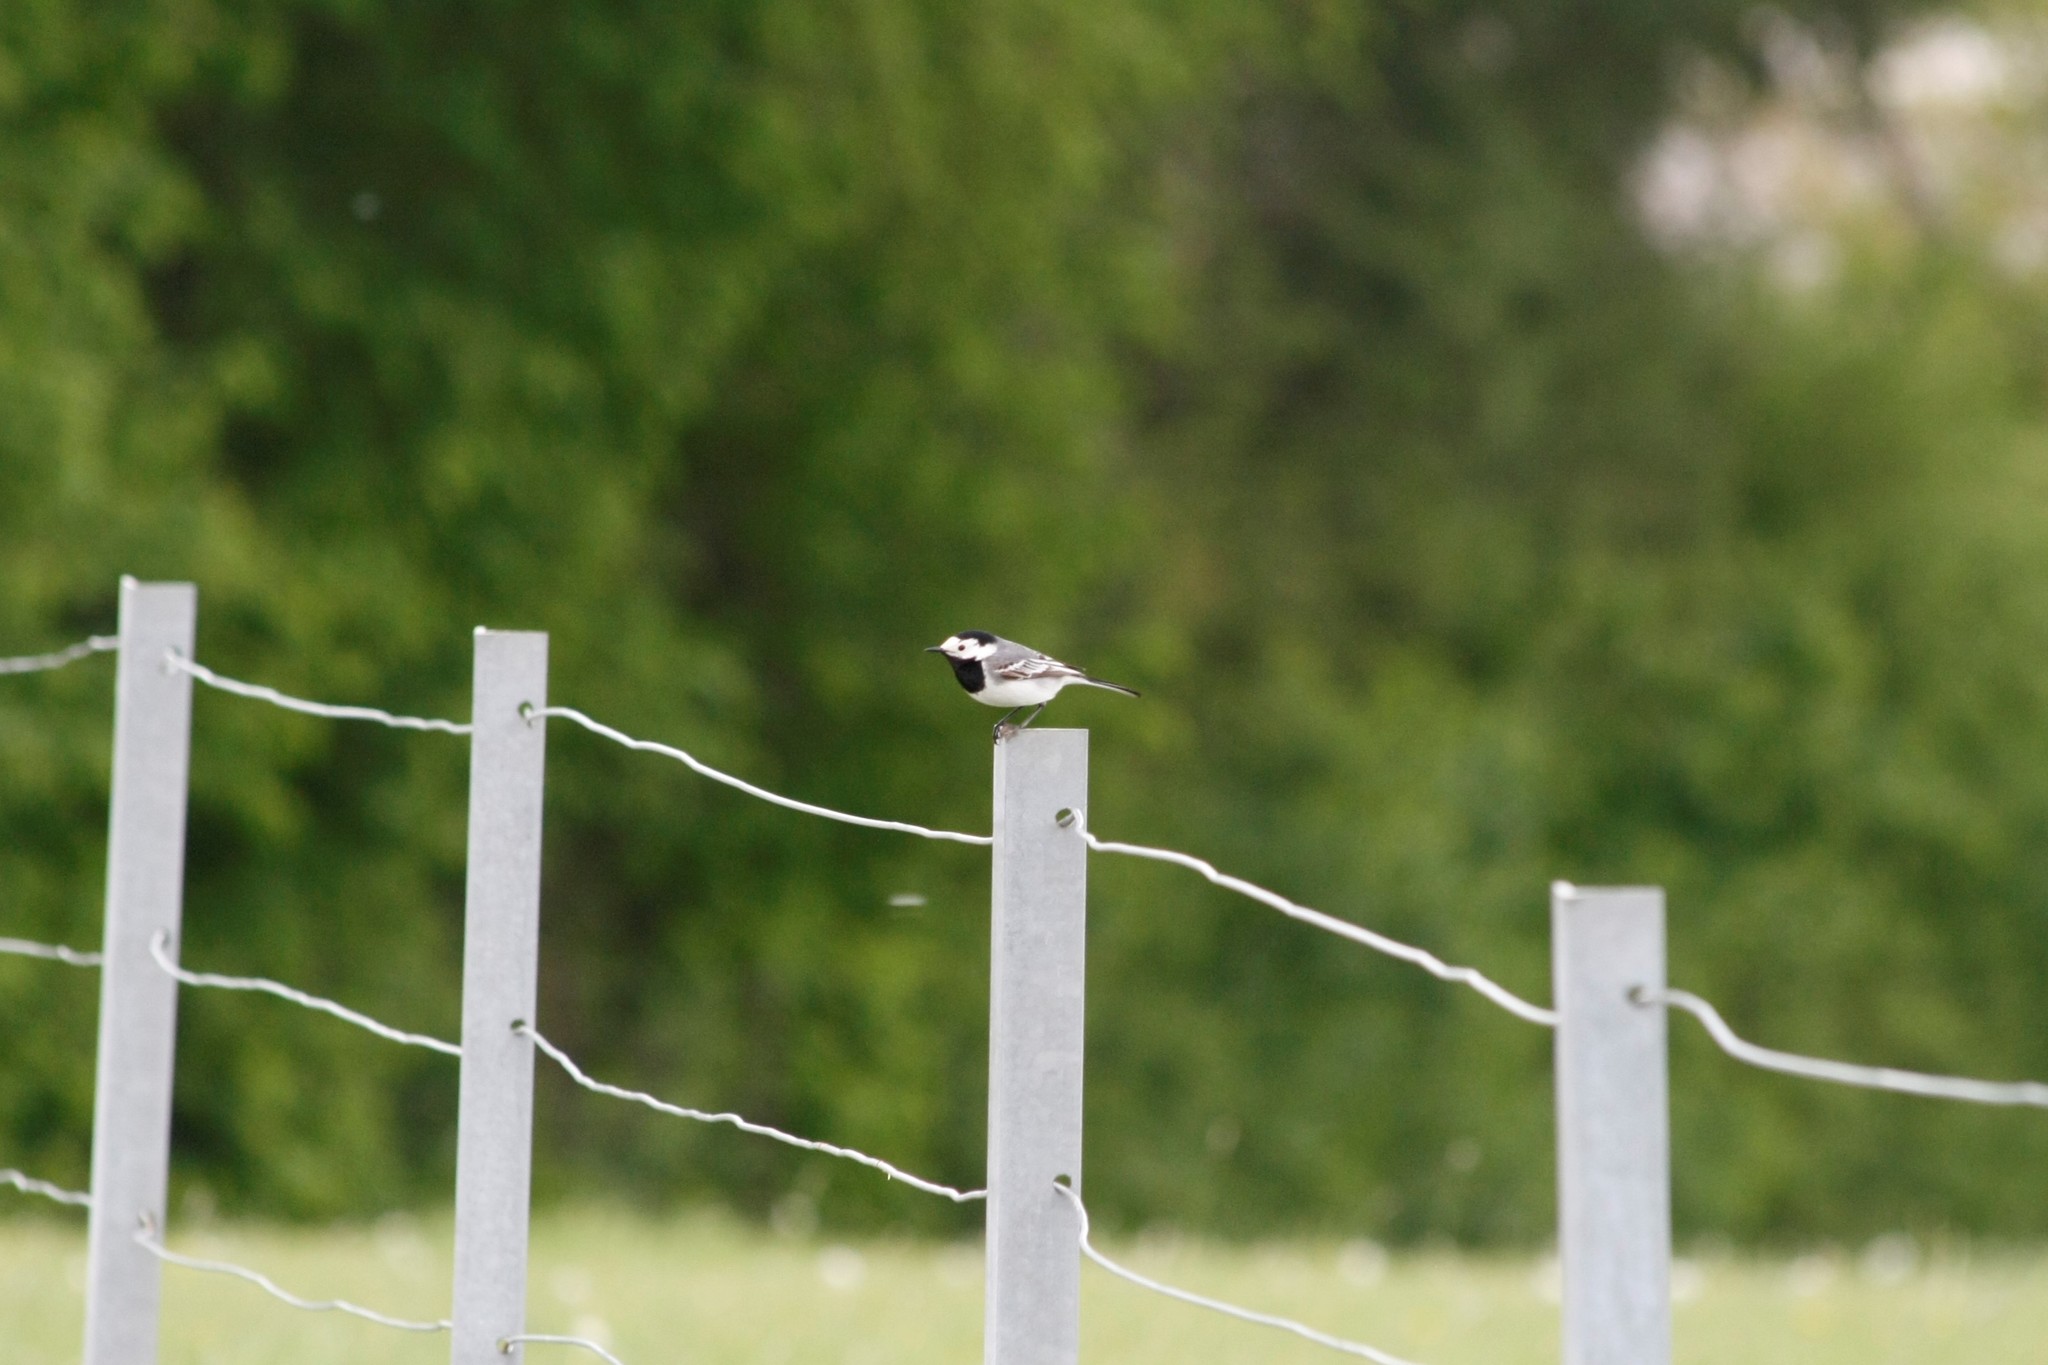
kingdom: Animalia
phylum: Chordata
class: Aves
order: Passeriformes
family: Motacillidae
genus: Motacilla
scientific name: Motacilla alba
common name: White wagtail
